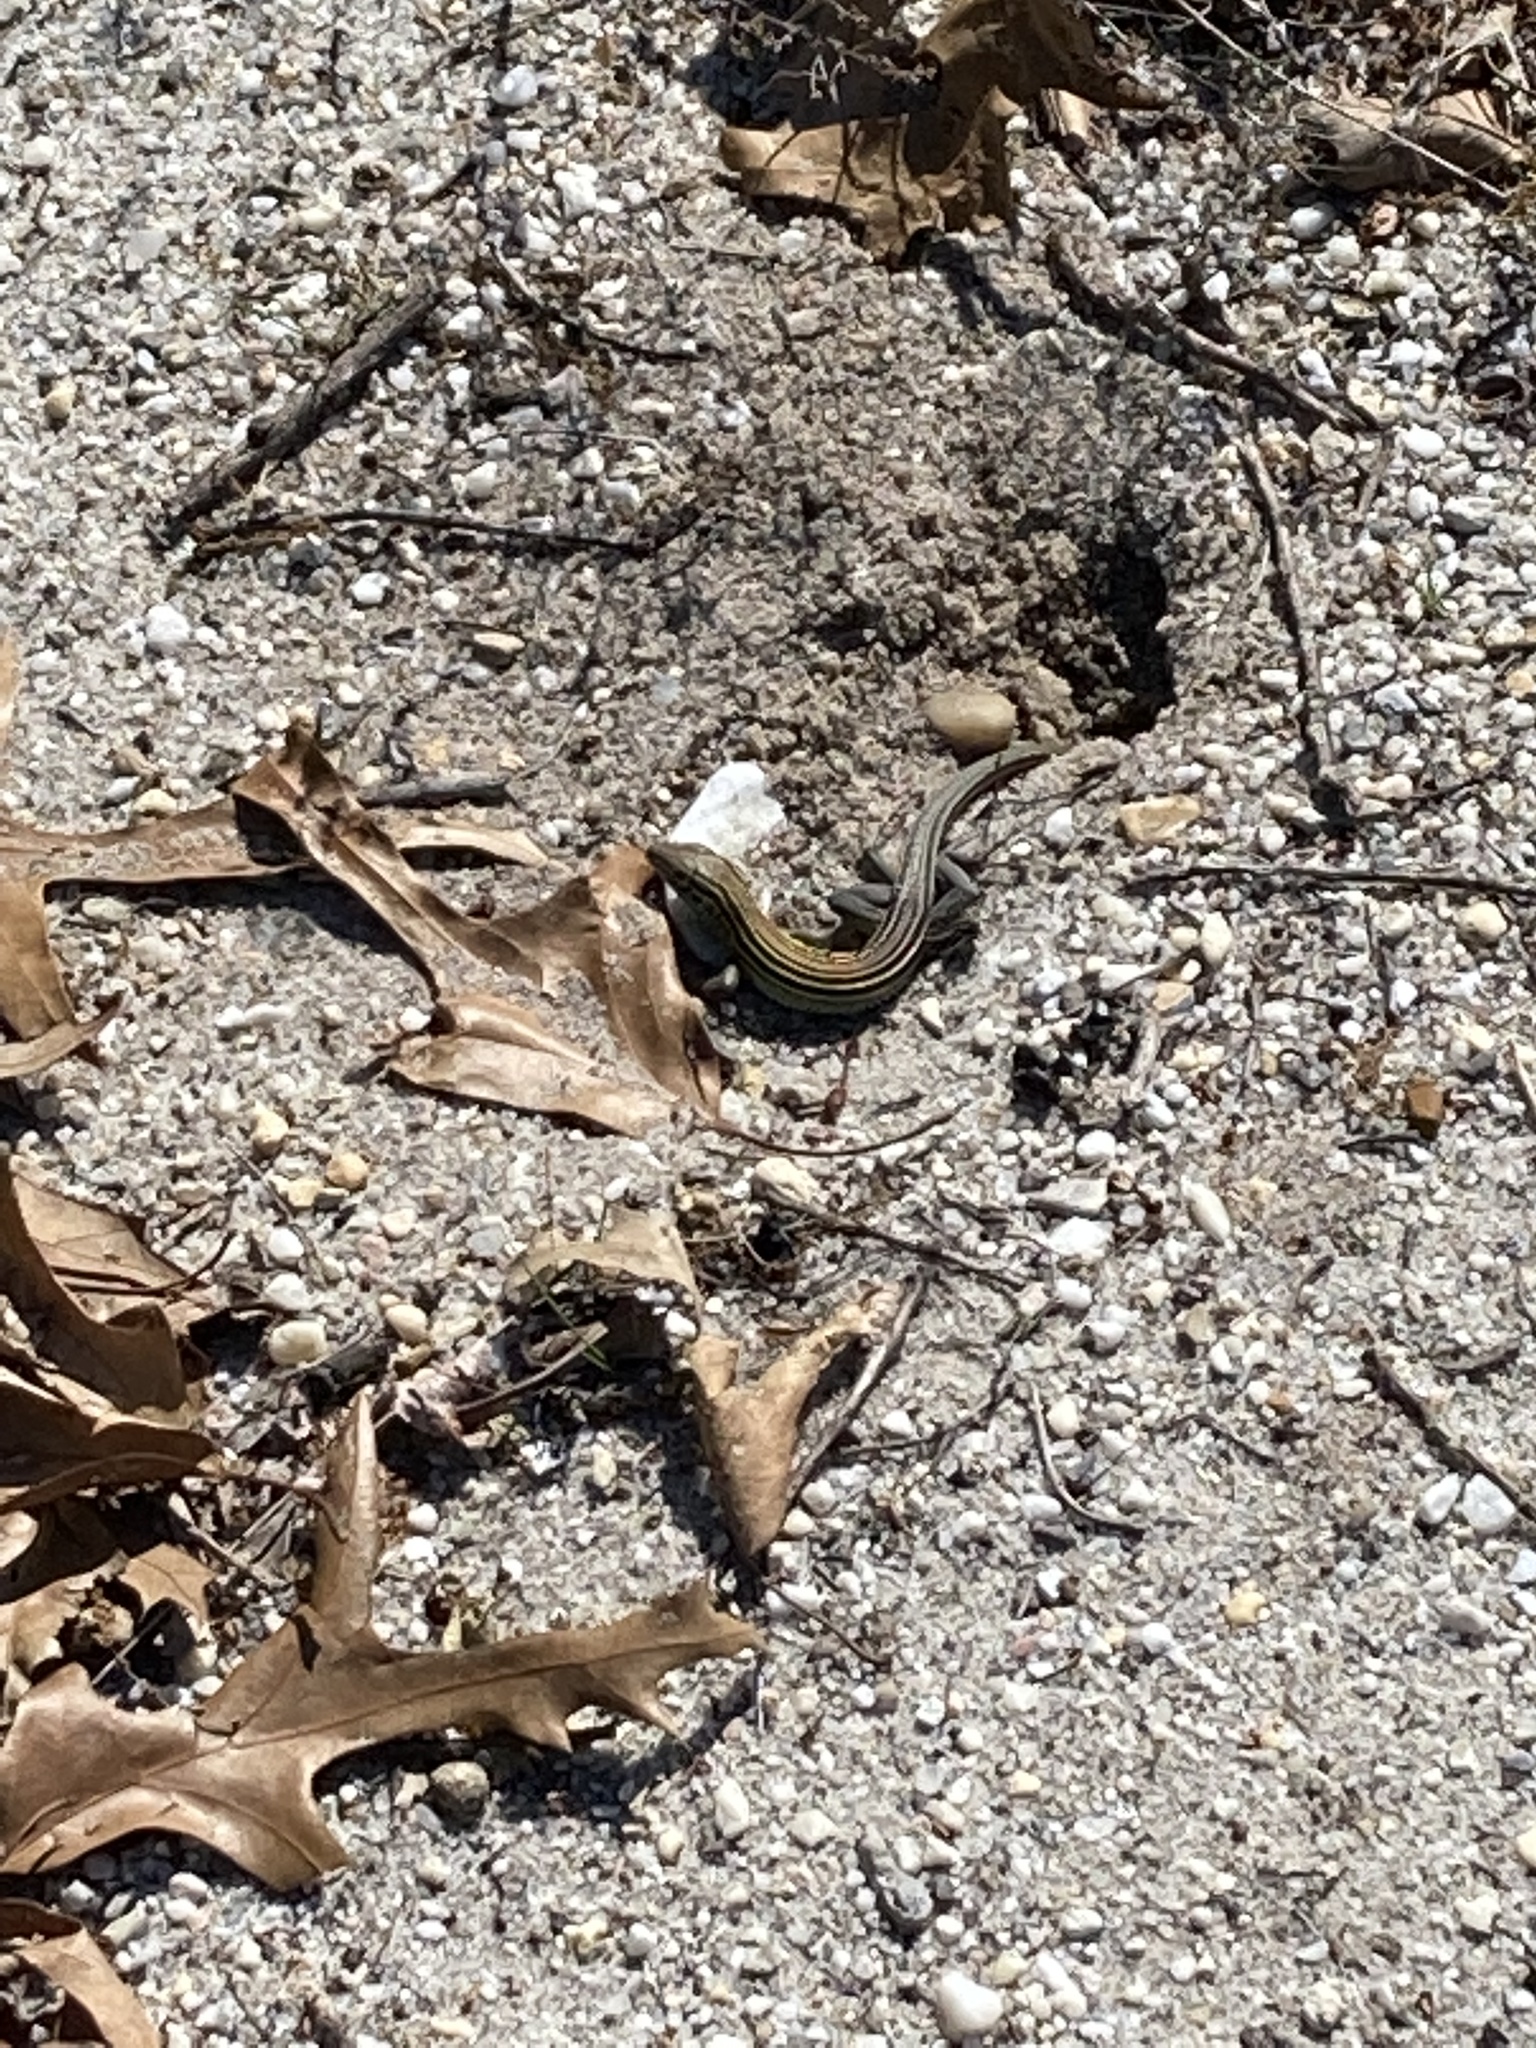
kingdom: Animalia
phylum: Chordata
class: Squamata
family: Teiidae
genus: Aspidoscelis
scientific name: Aspidoscelis sexlineatus
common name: Six-lined racerunner
